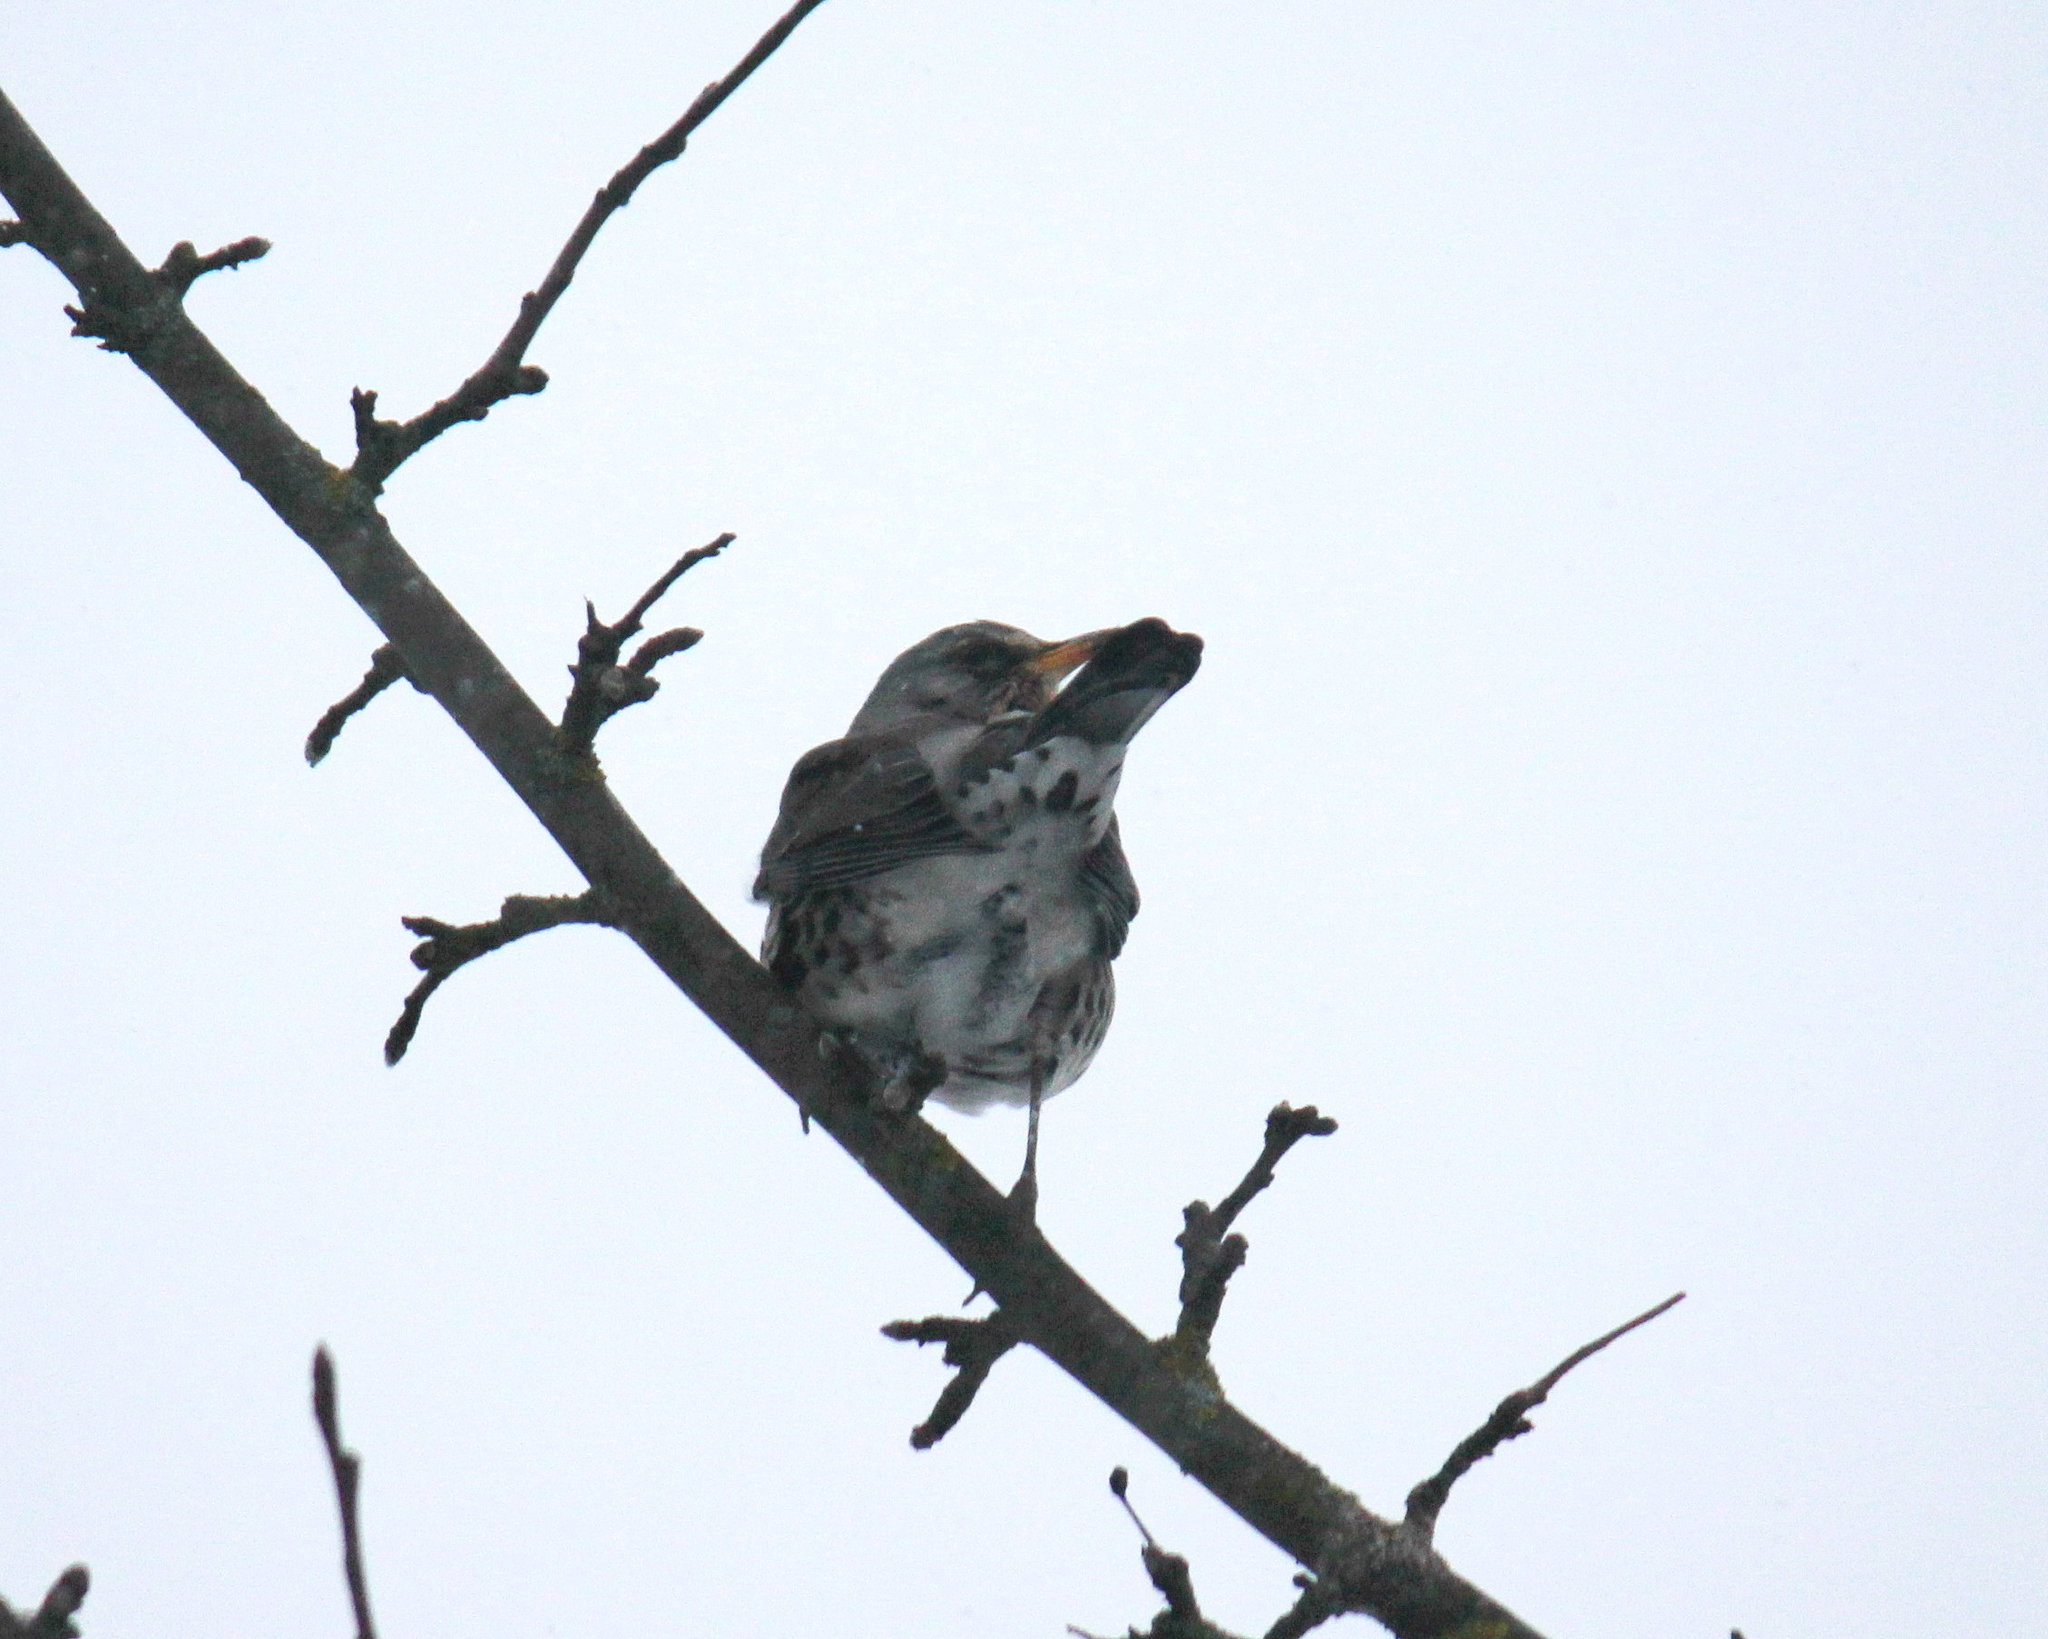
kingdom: Animalia
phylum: Chordata
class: Aves
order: Passeriformes
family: Turdidae
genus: Turdus
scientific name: Turdus pilaris
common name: Fieldfare
